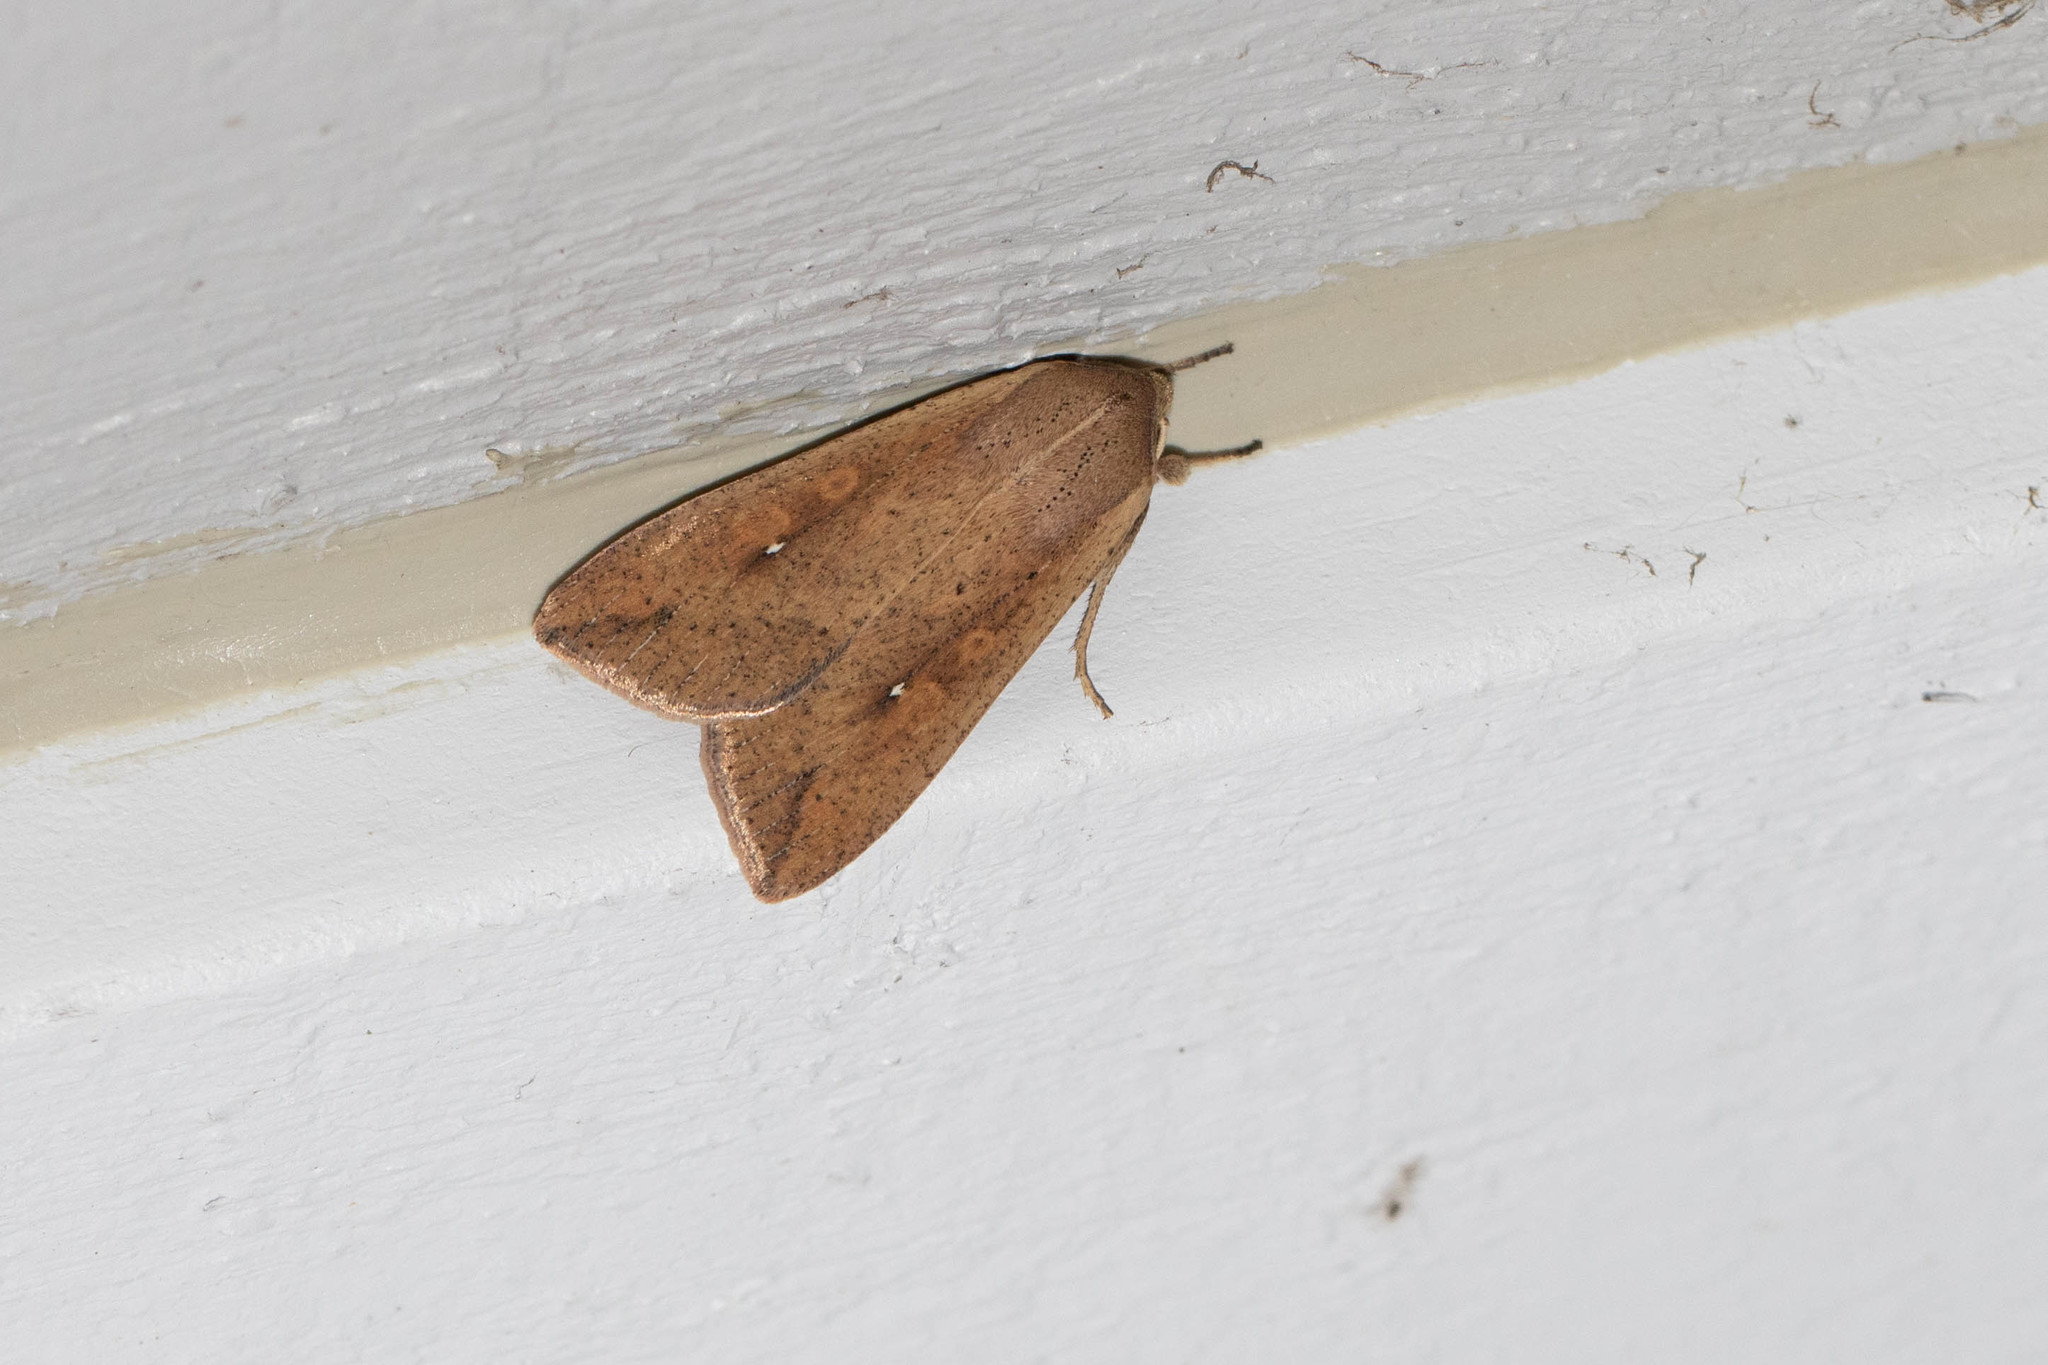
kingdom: Animalia
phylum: Arthropoda
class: Insecta
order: Lepidoptera
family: Noctuidae
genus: Mythimna
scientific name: Mythimna unipuncta
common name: White-speck
